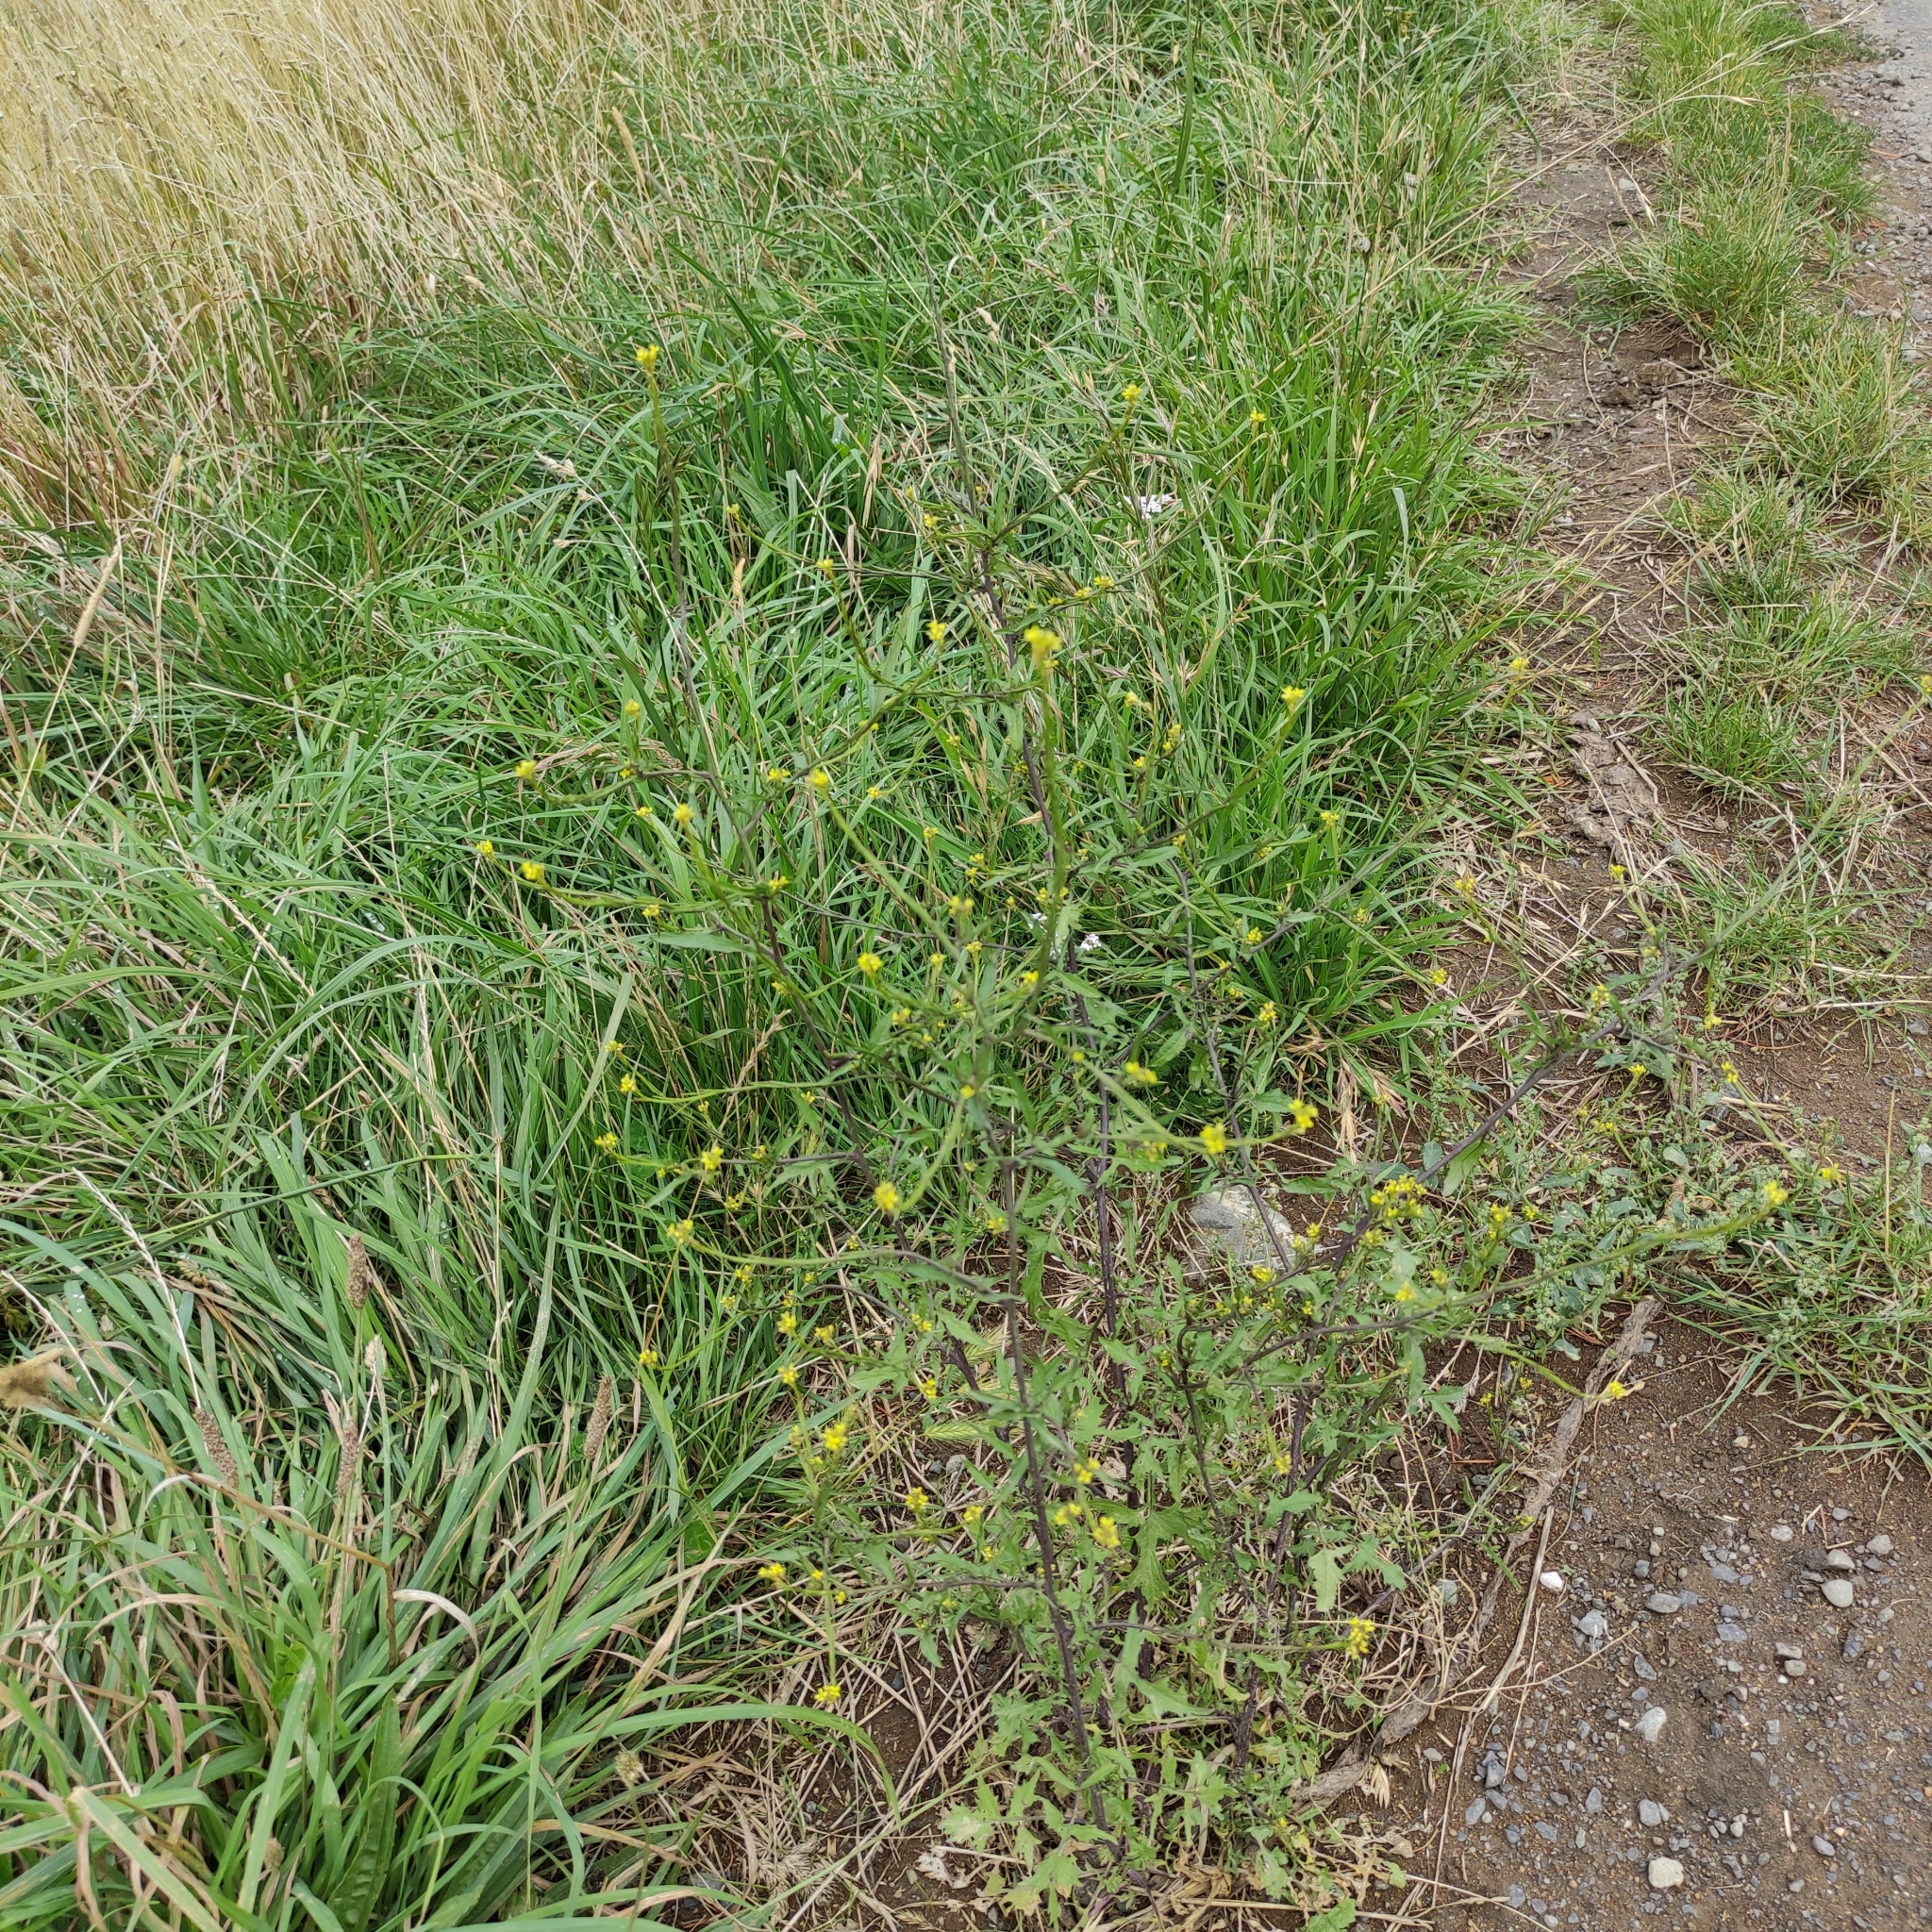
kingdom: Plantae
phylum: Tracheophyta
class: Magnoliopsida
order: Brassicales
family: Brassicaceae
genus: Sisymbrium
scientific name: Sisymbrium officinale
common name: Hedge mustard
